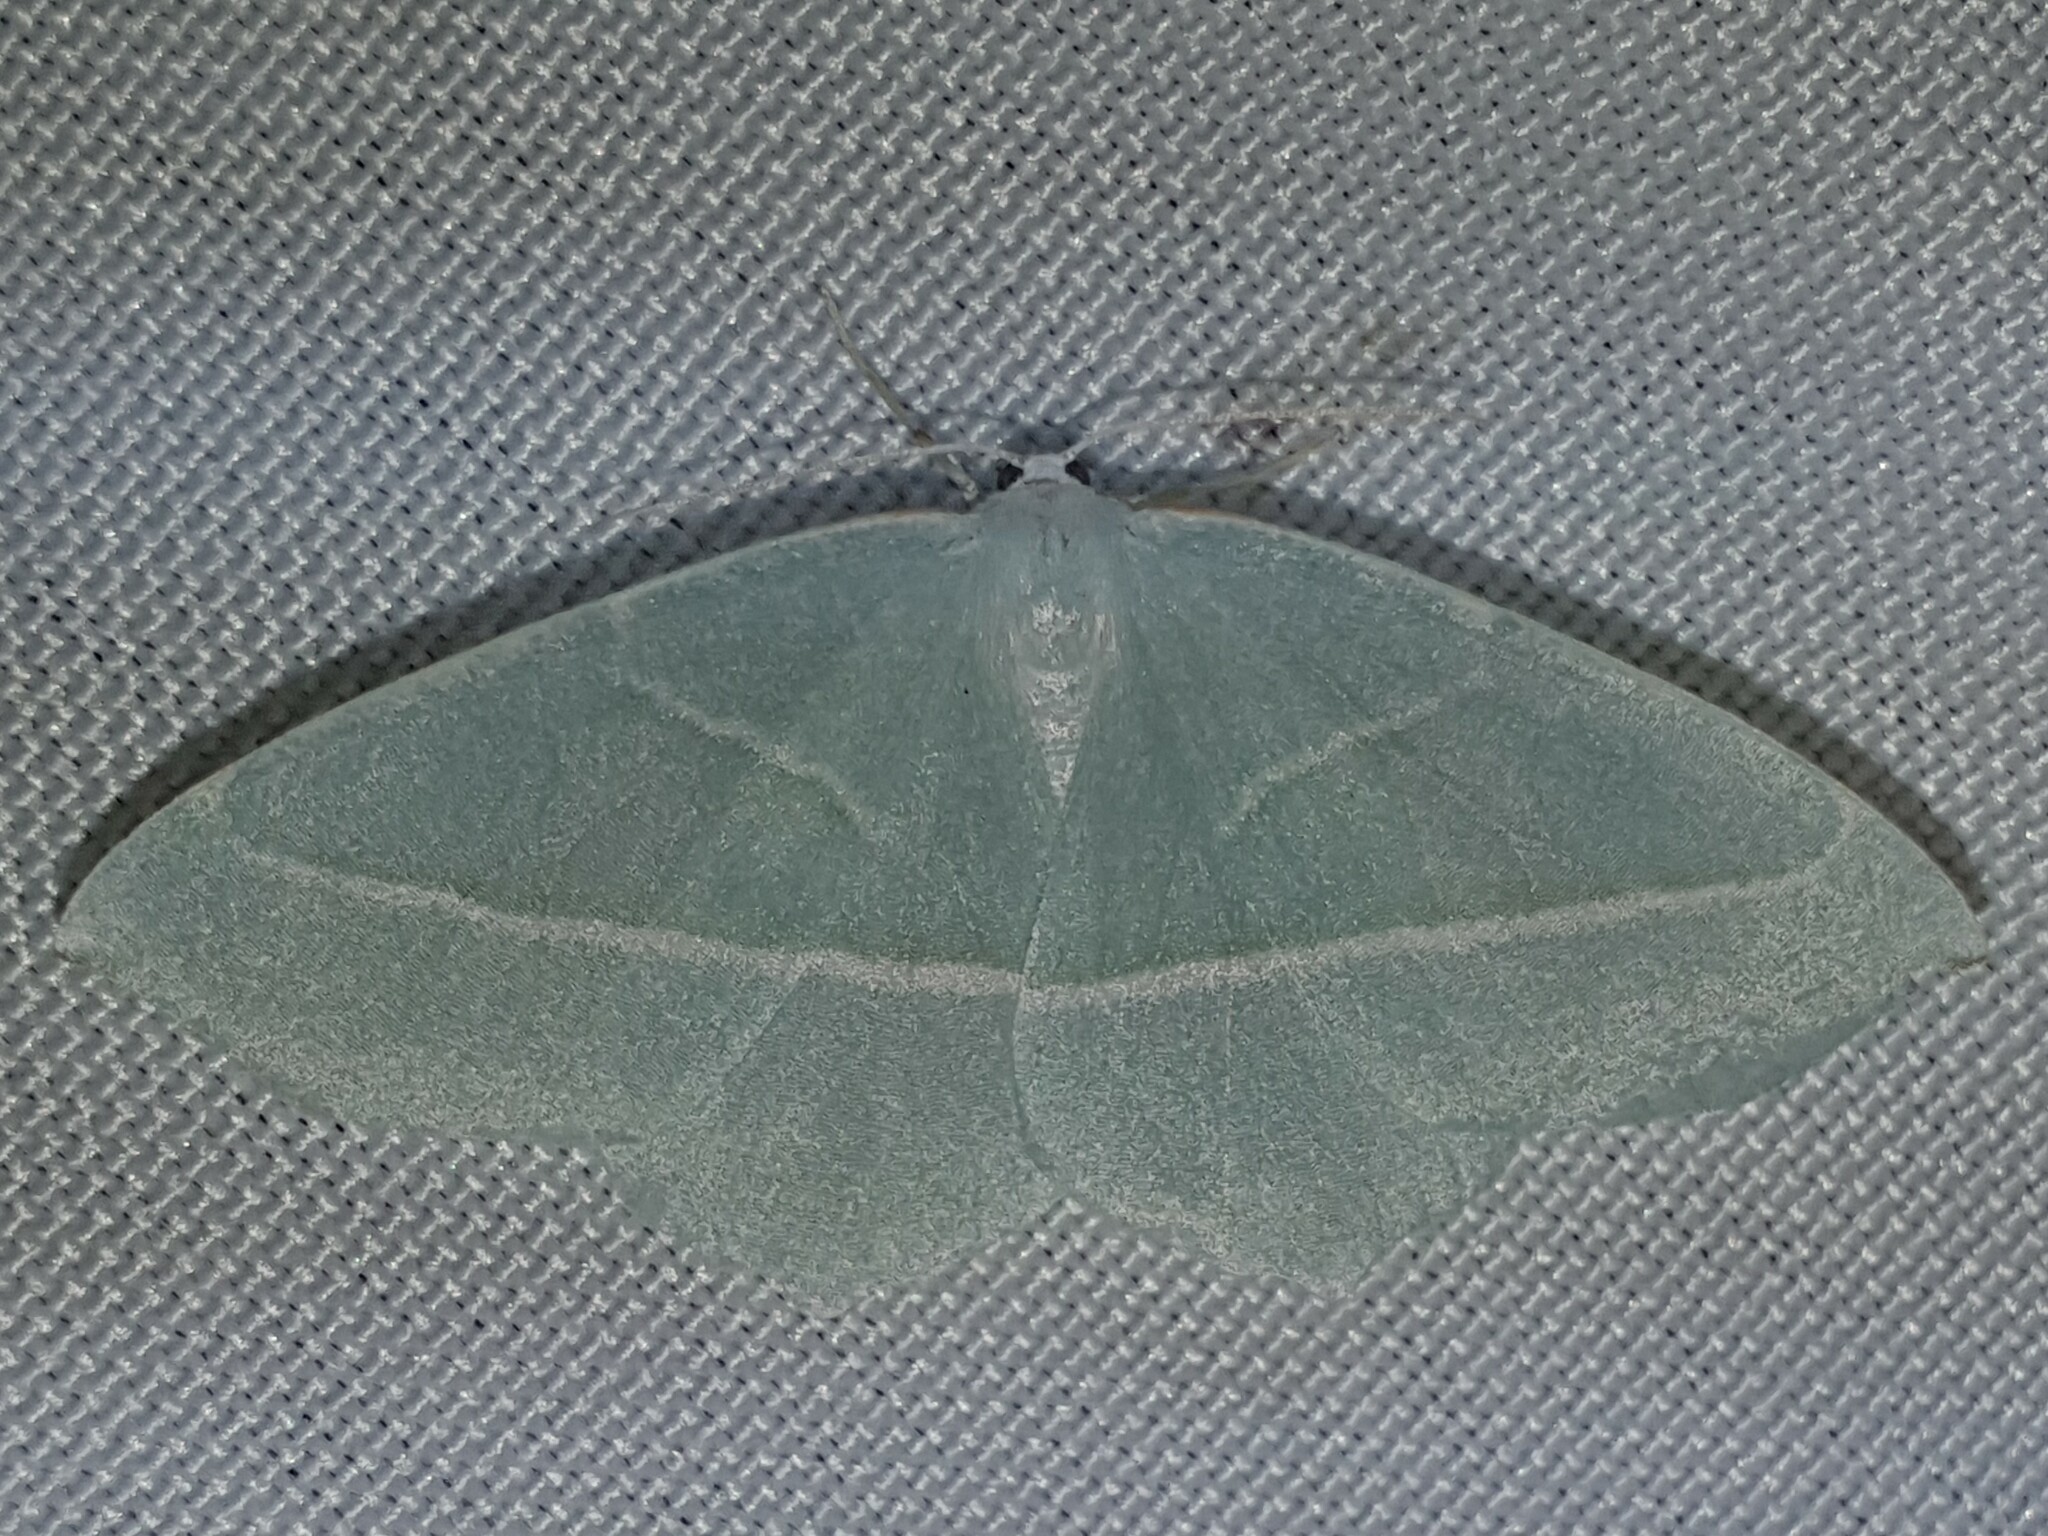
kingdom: Animalia
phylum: Arthropoda
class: Insecta
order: Lepidoptera
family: Geometridae
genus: Campaea
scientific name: Campaea margaritaria
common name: Light emerald
